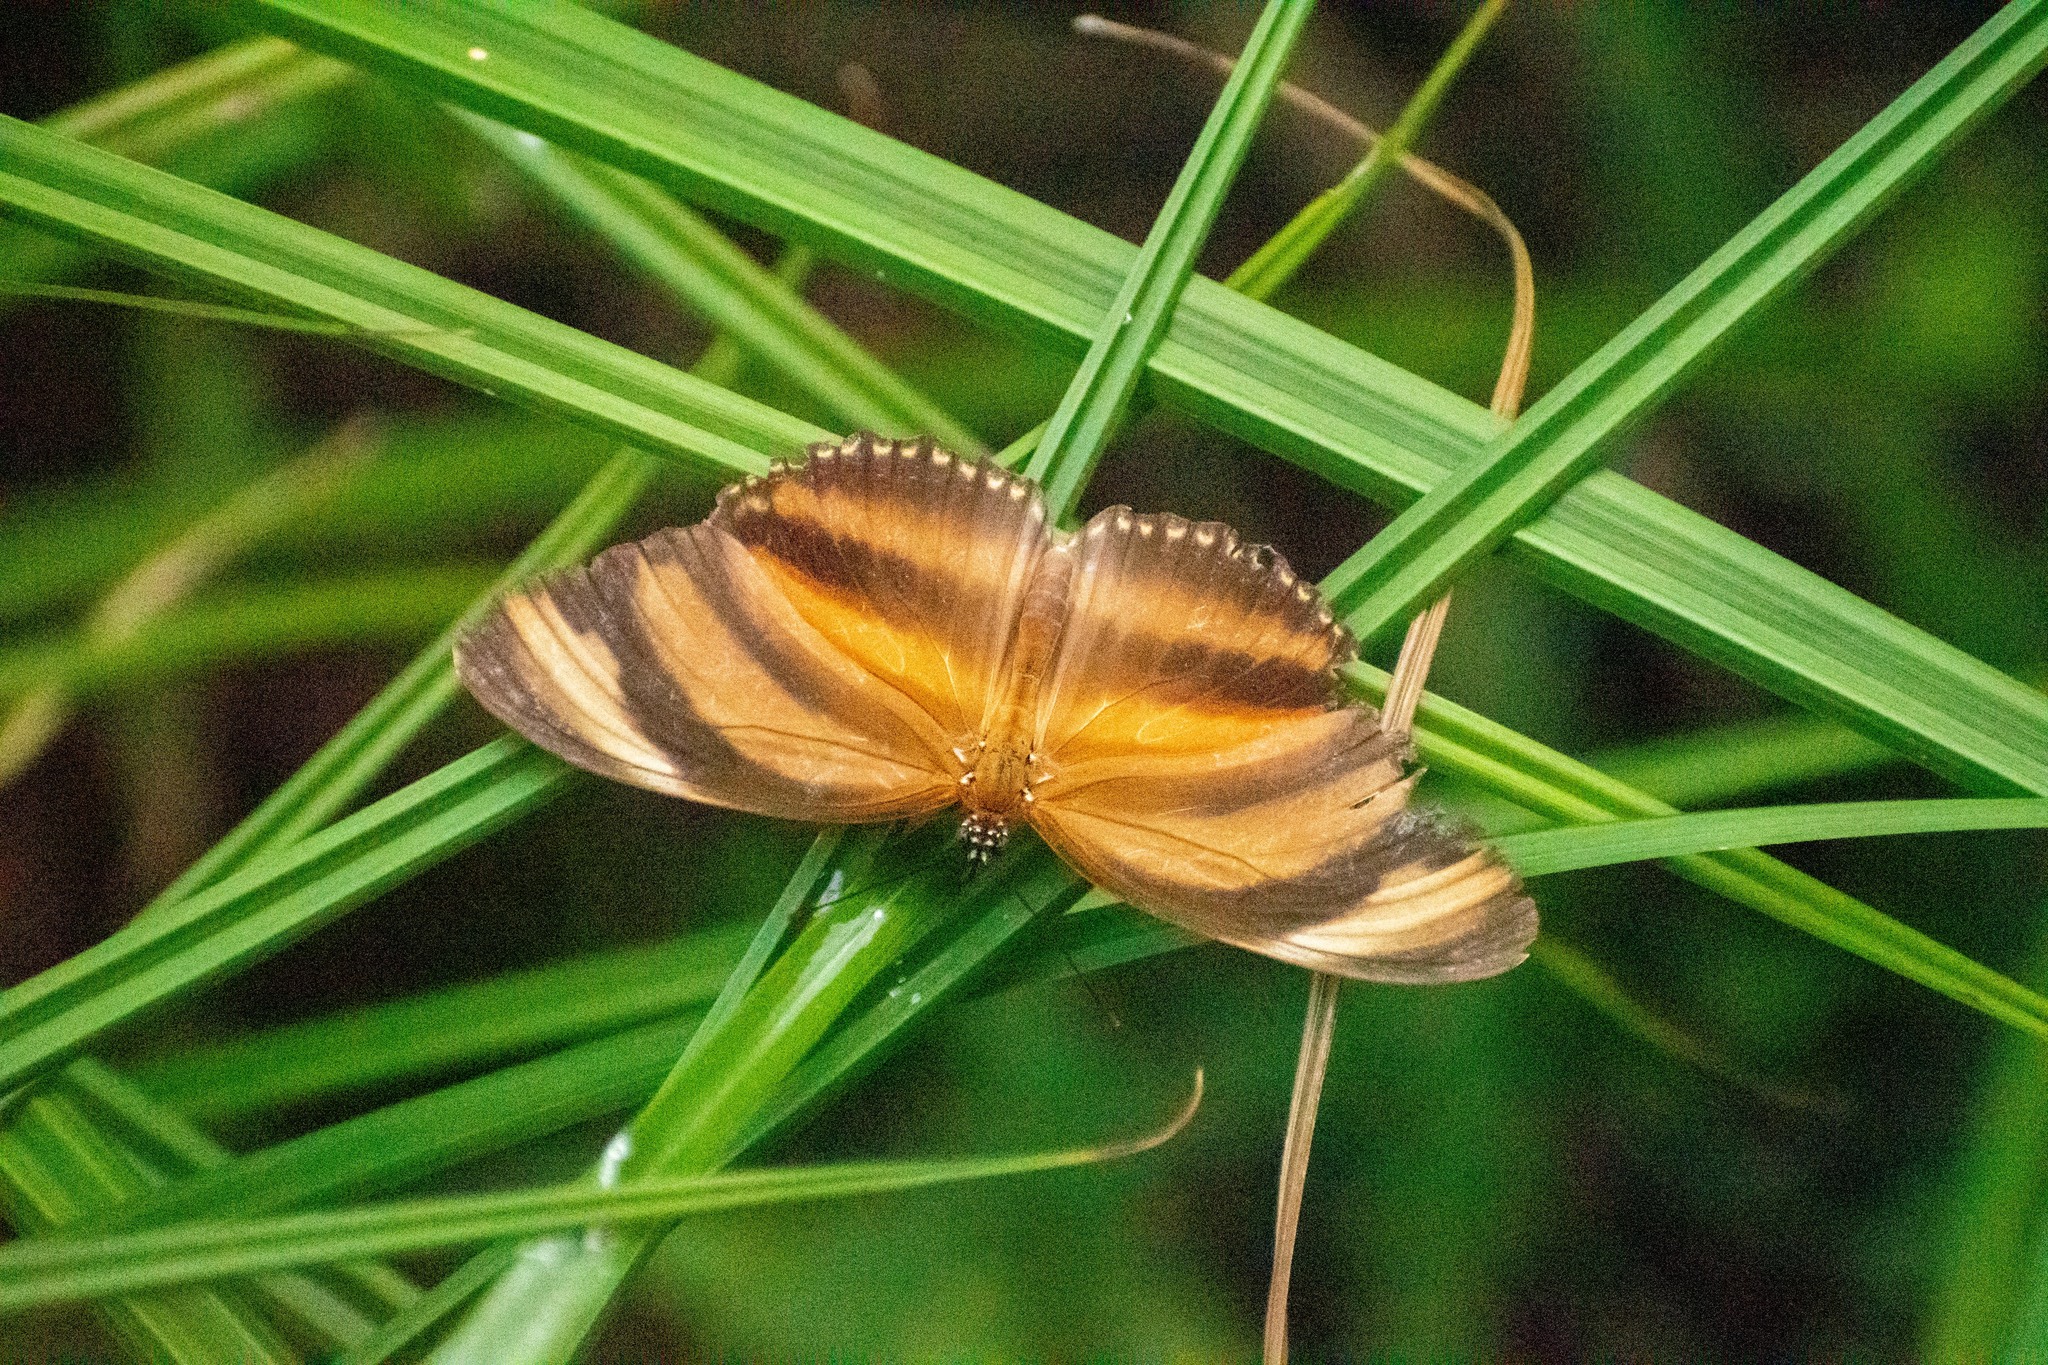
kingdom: Animalia
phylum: Arthropoda
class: Insecta
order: Lepidoptera
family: Nymphalidae
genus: Dryadula
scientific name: Dryadula phaetusa
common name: Banded orange heliconian
